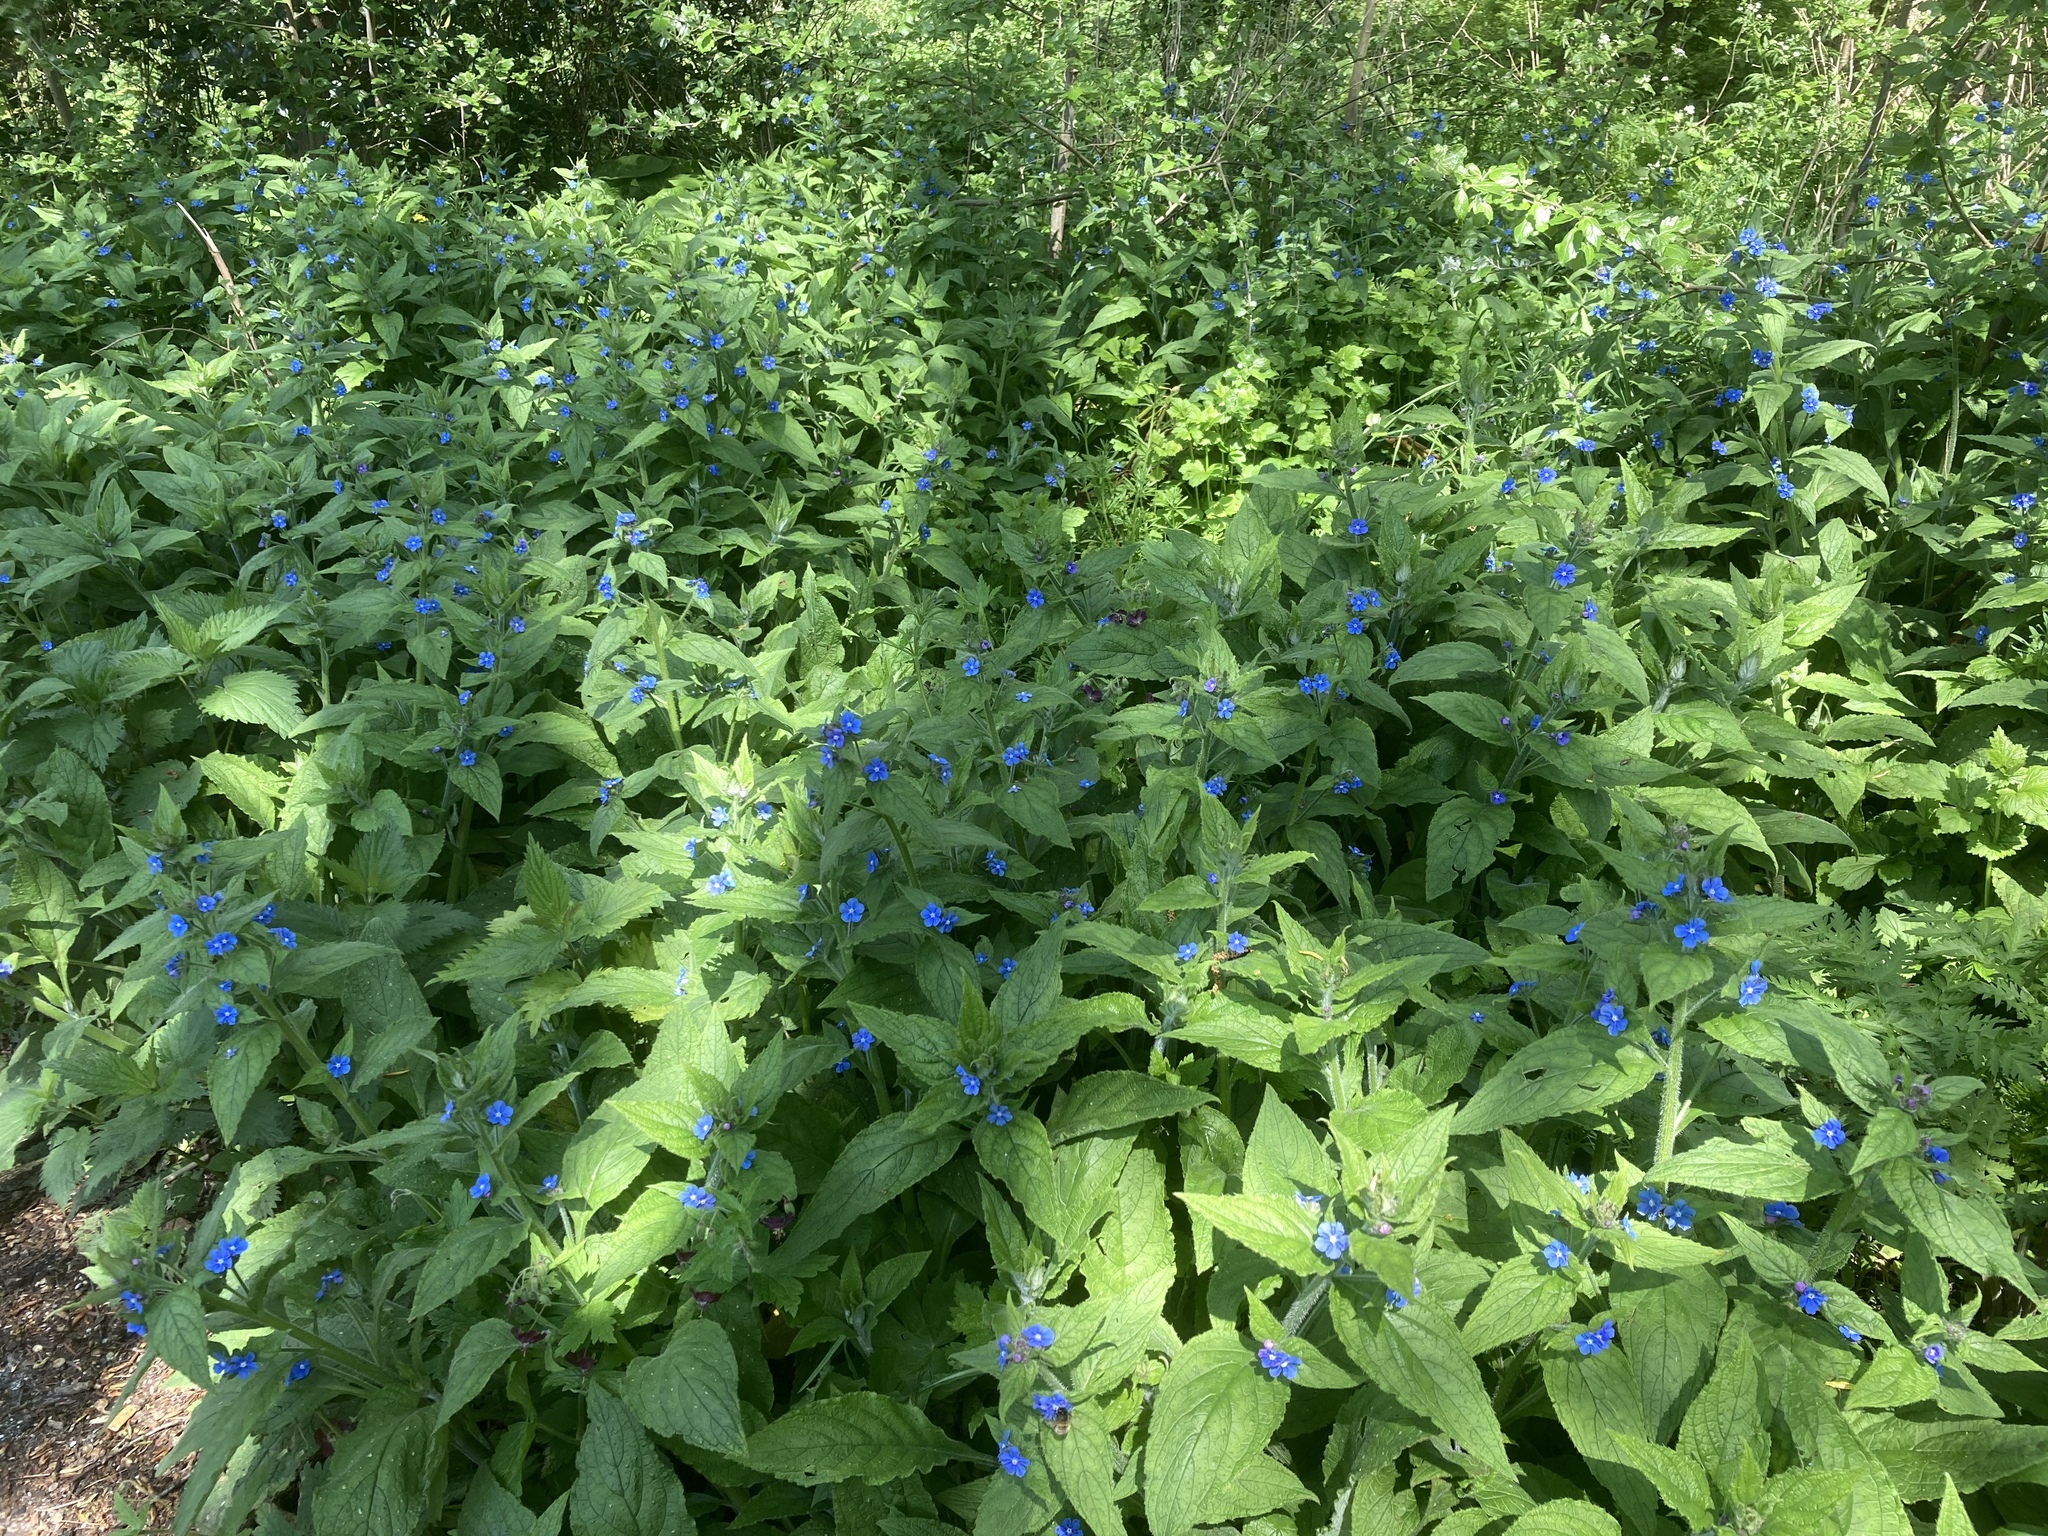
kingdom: Plantae
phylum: Tracheophyta
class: Magnoliopsida
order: Boraginales
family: Boraginaceae
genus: Pentaglottis
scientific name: Pentaglottis sempervirens
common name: Green alkanet
